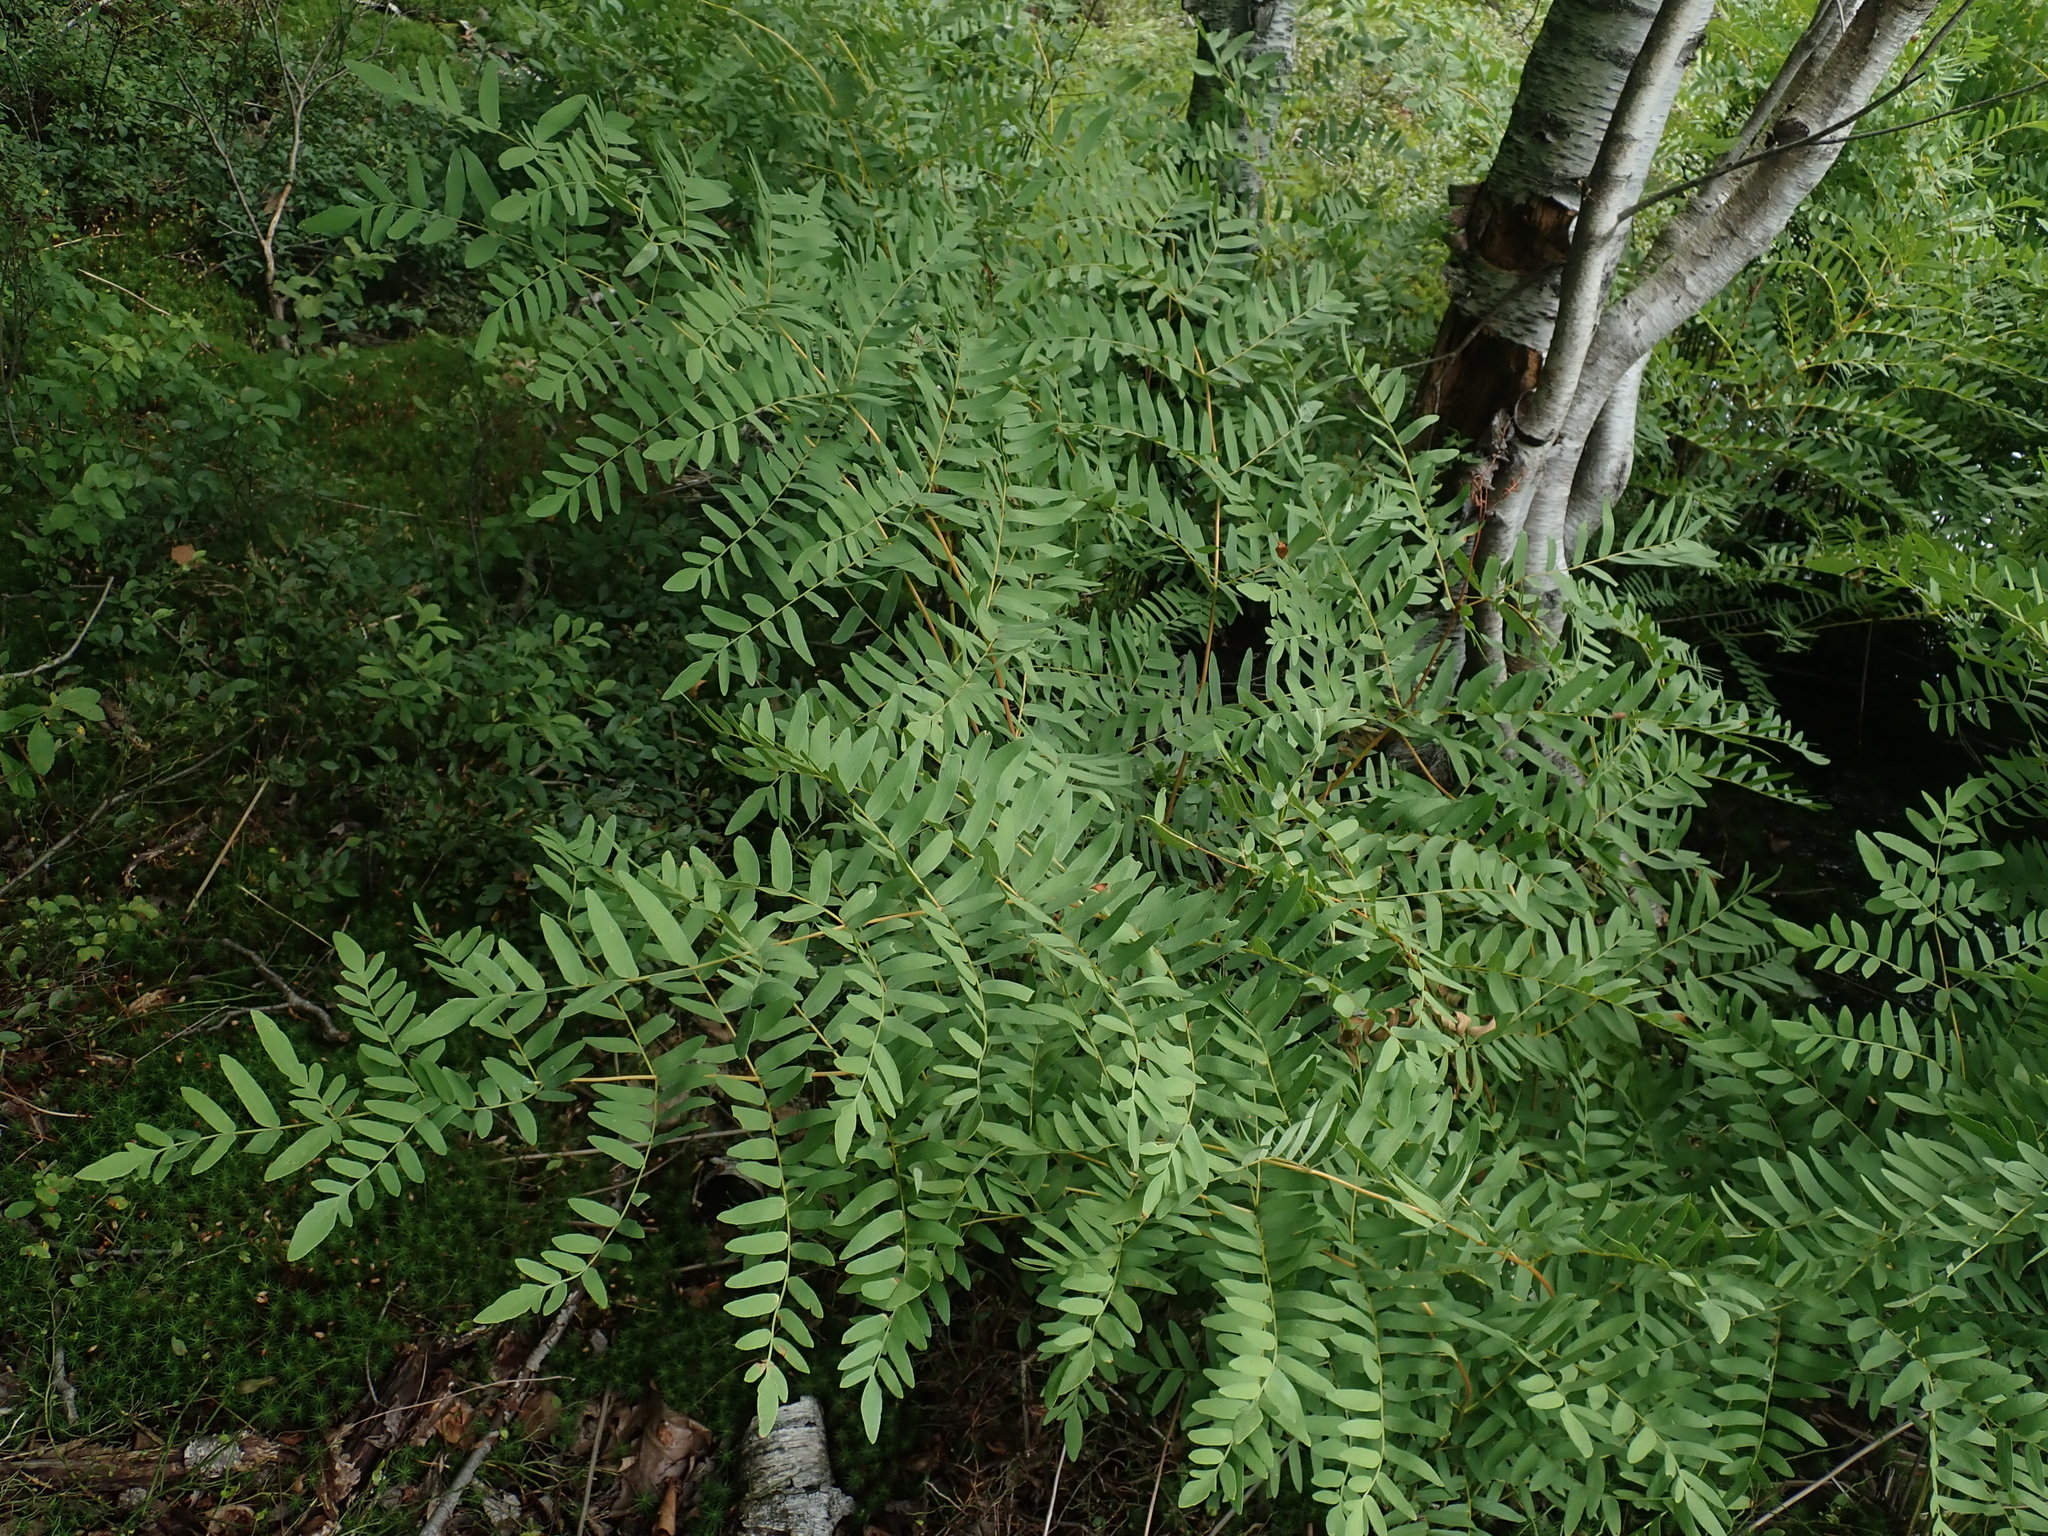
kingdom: Plantae
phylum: Tracheophyta
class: Polypodiopsida
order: Osmundales
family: Osmundaceae
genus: Osmunda
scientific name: Osmunda spectabilis
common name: American royal fern
